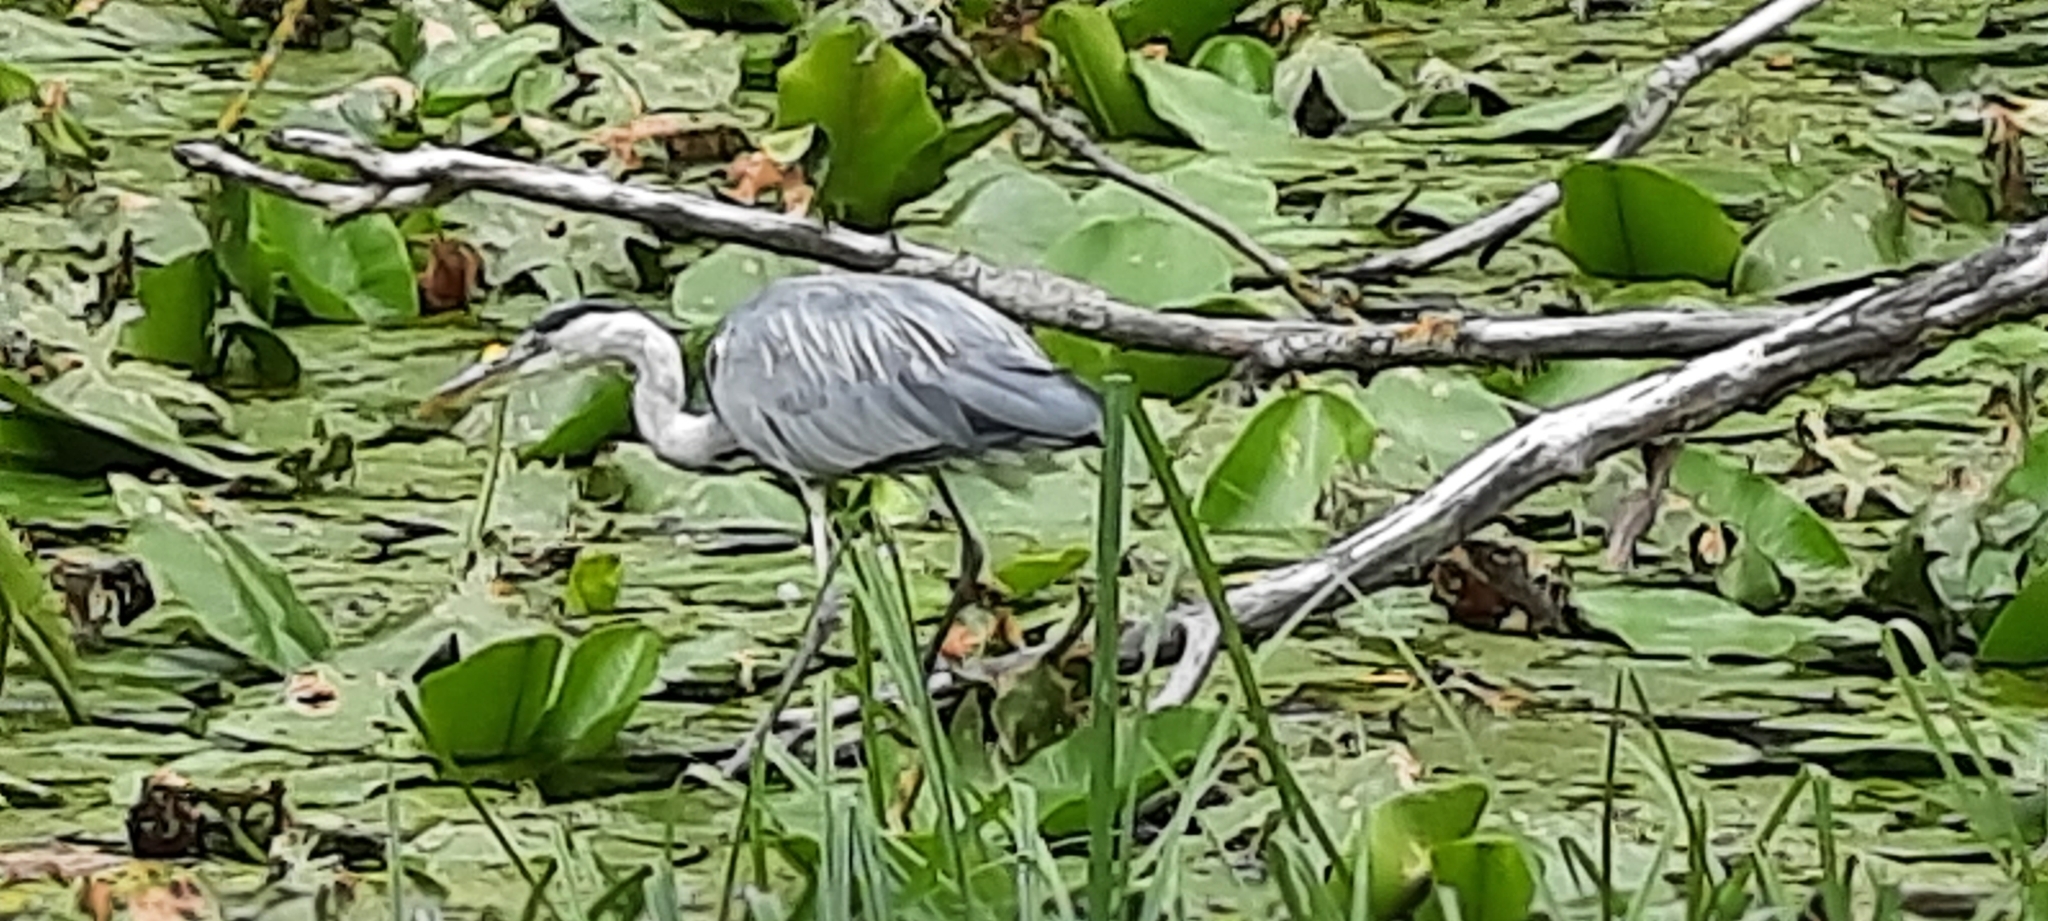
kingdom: Animalia
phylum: Chordata
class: Aves
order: Pelecaniformes
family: Ardeidae
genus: Ardea
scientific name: Ardea cinerea
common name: Grey heron
